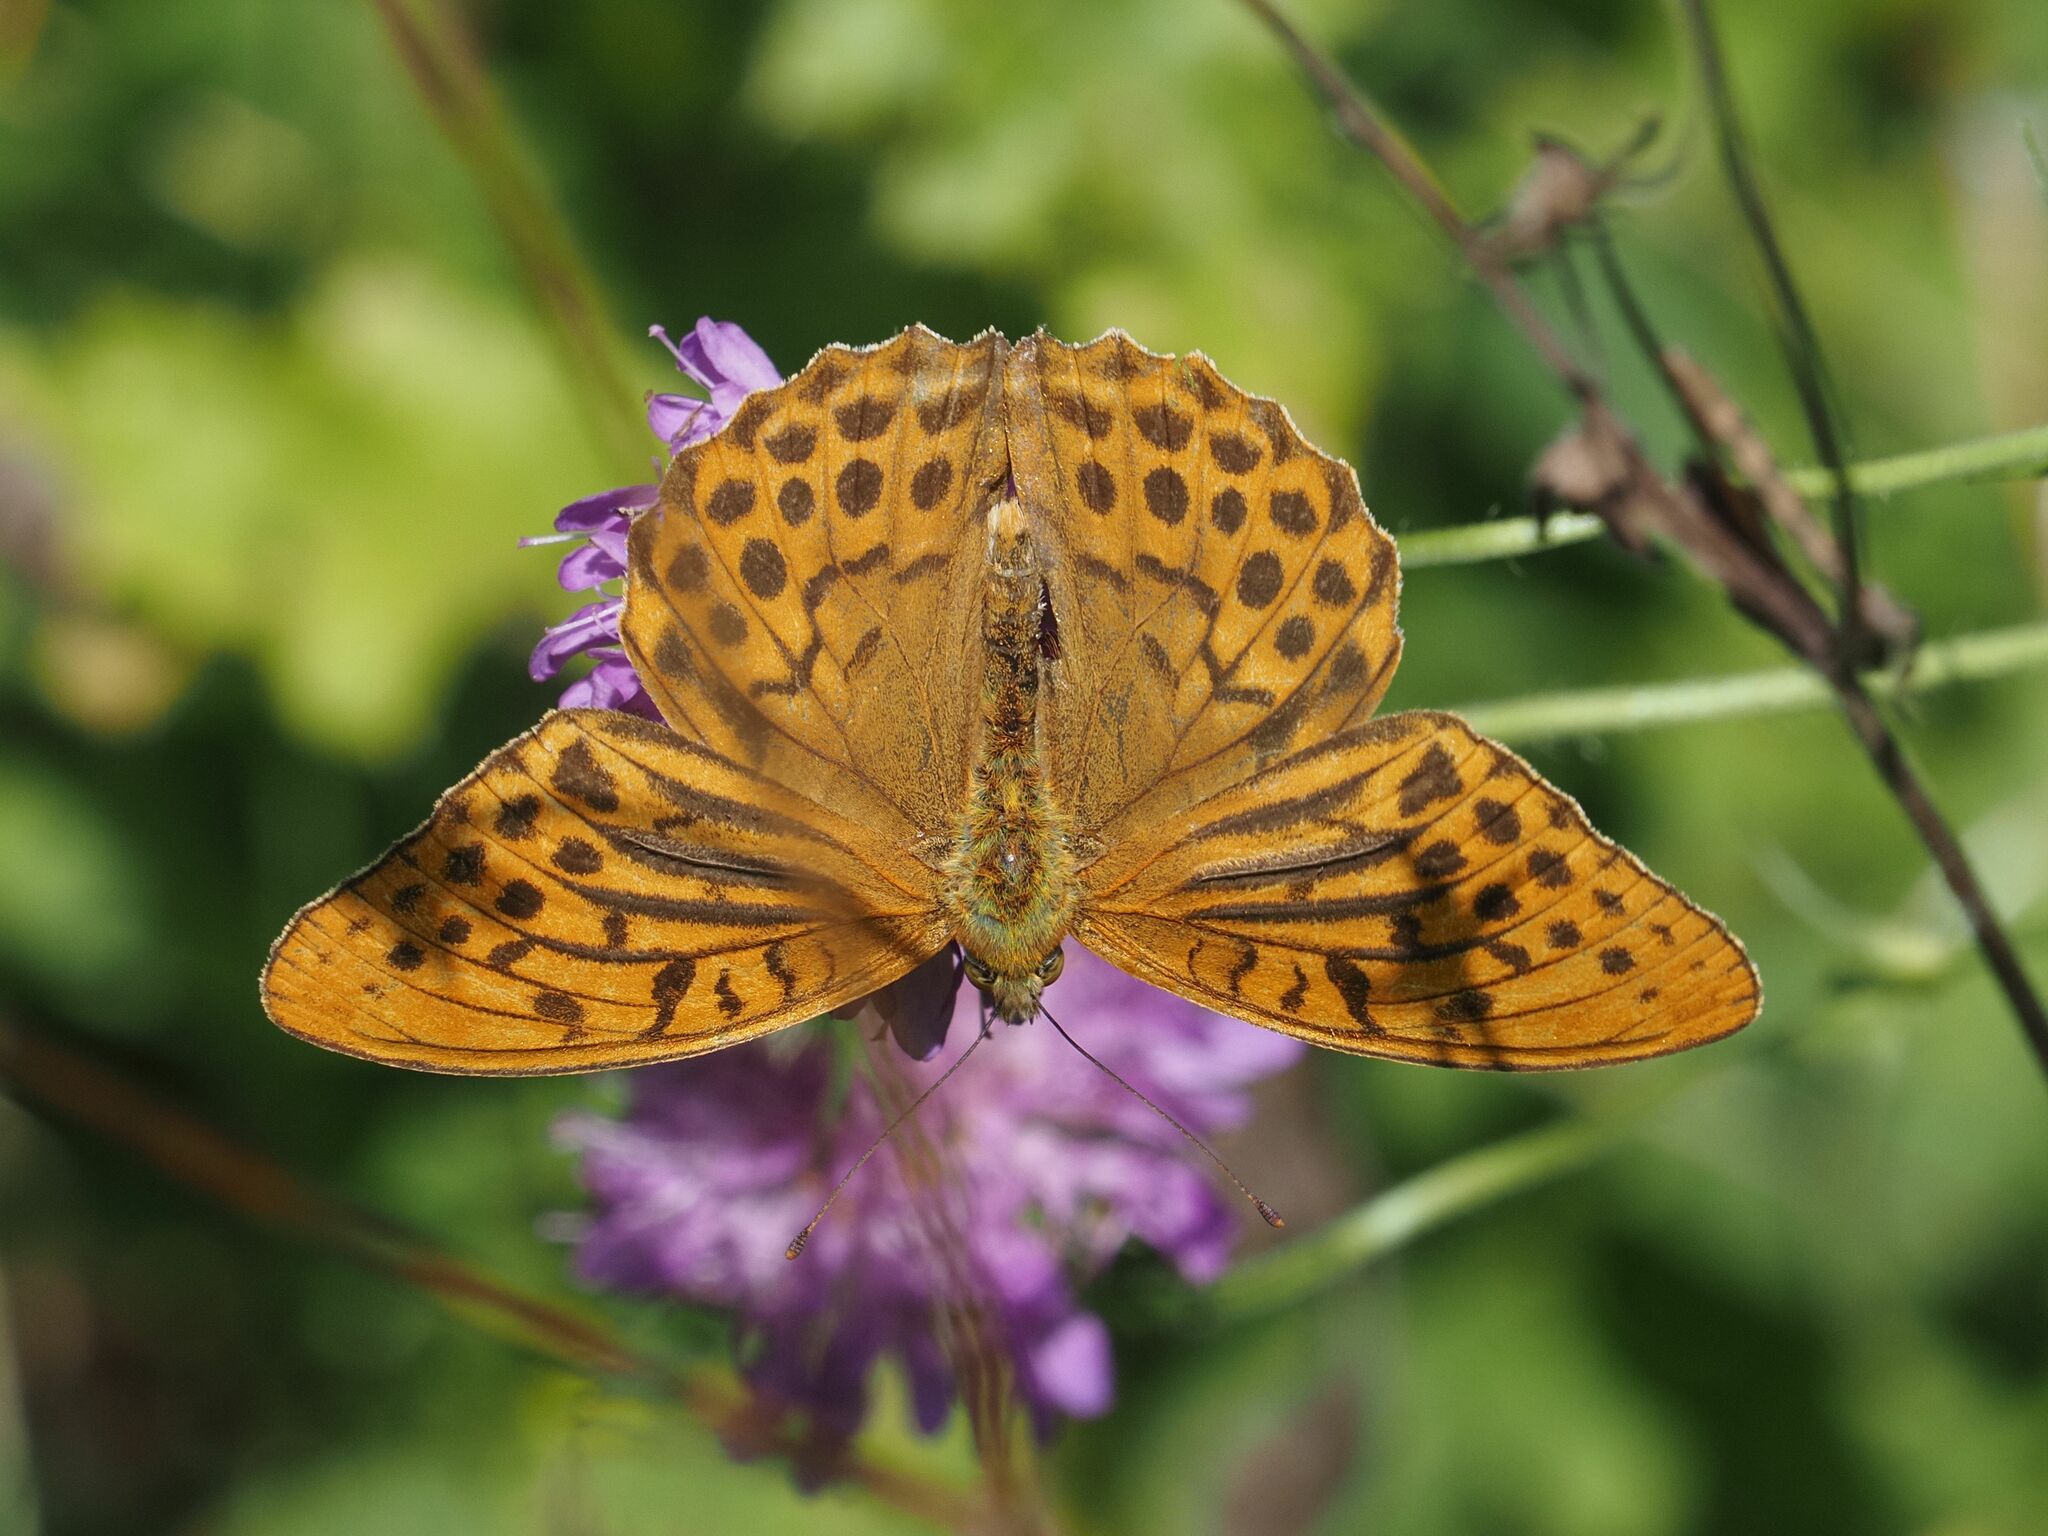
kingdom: Animalia
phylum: Arthropoda
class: Insecta
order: Lepidoptera
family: Nymphalidae
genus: Argynnis
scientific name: Argynnis paphia
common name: Silver-washed fritillary
